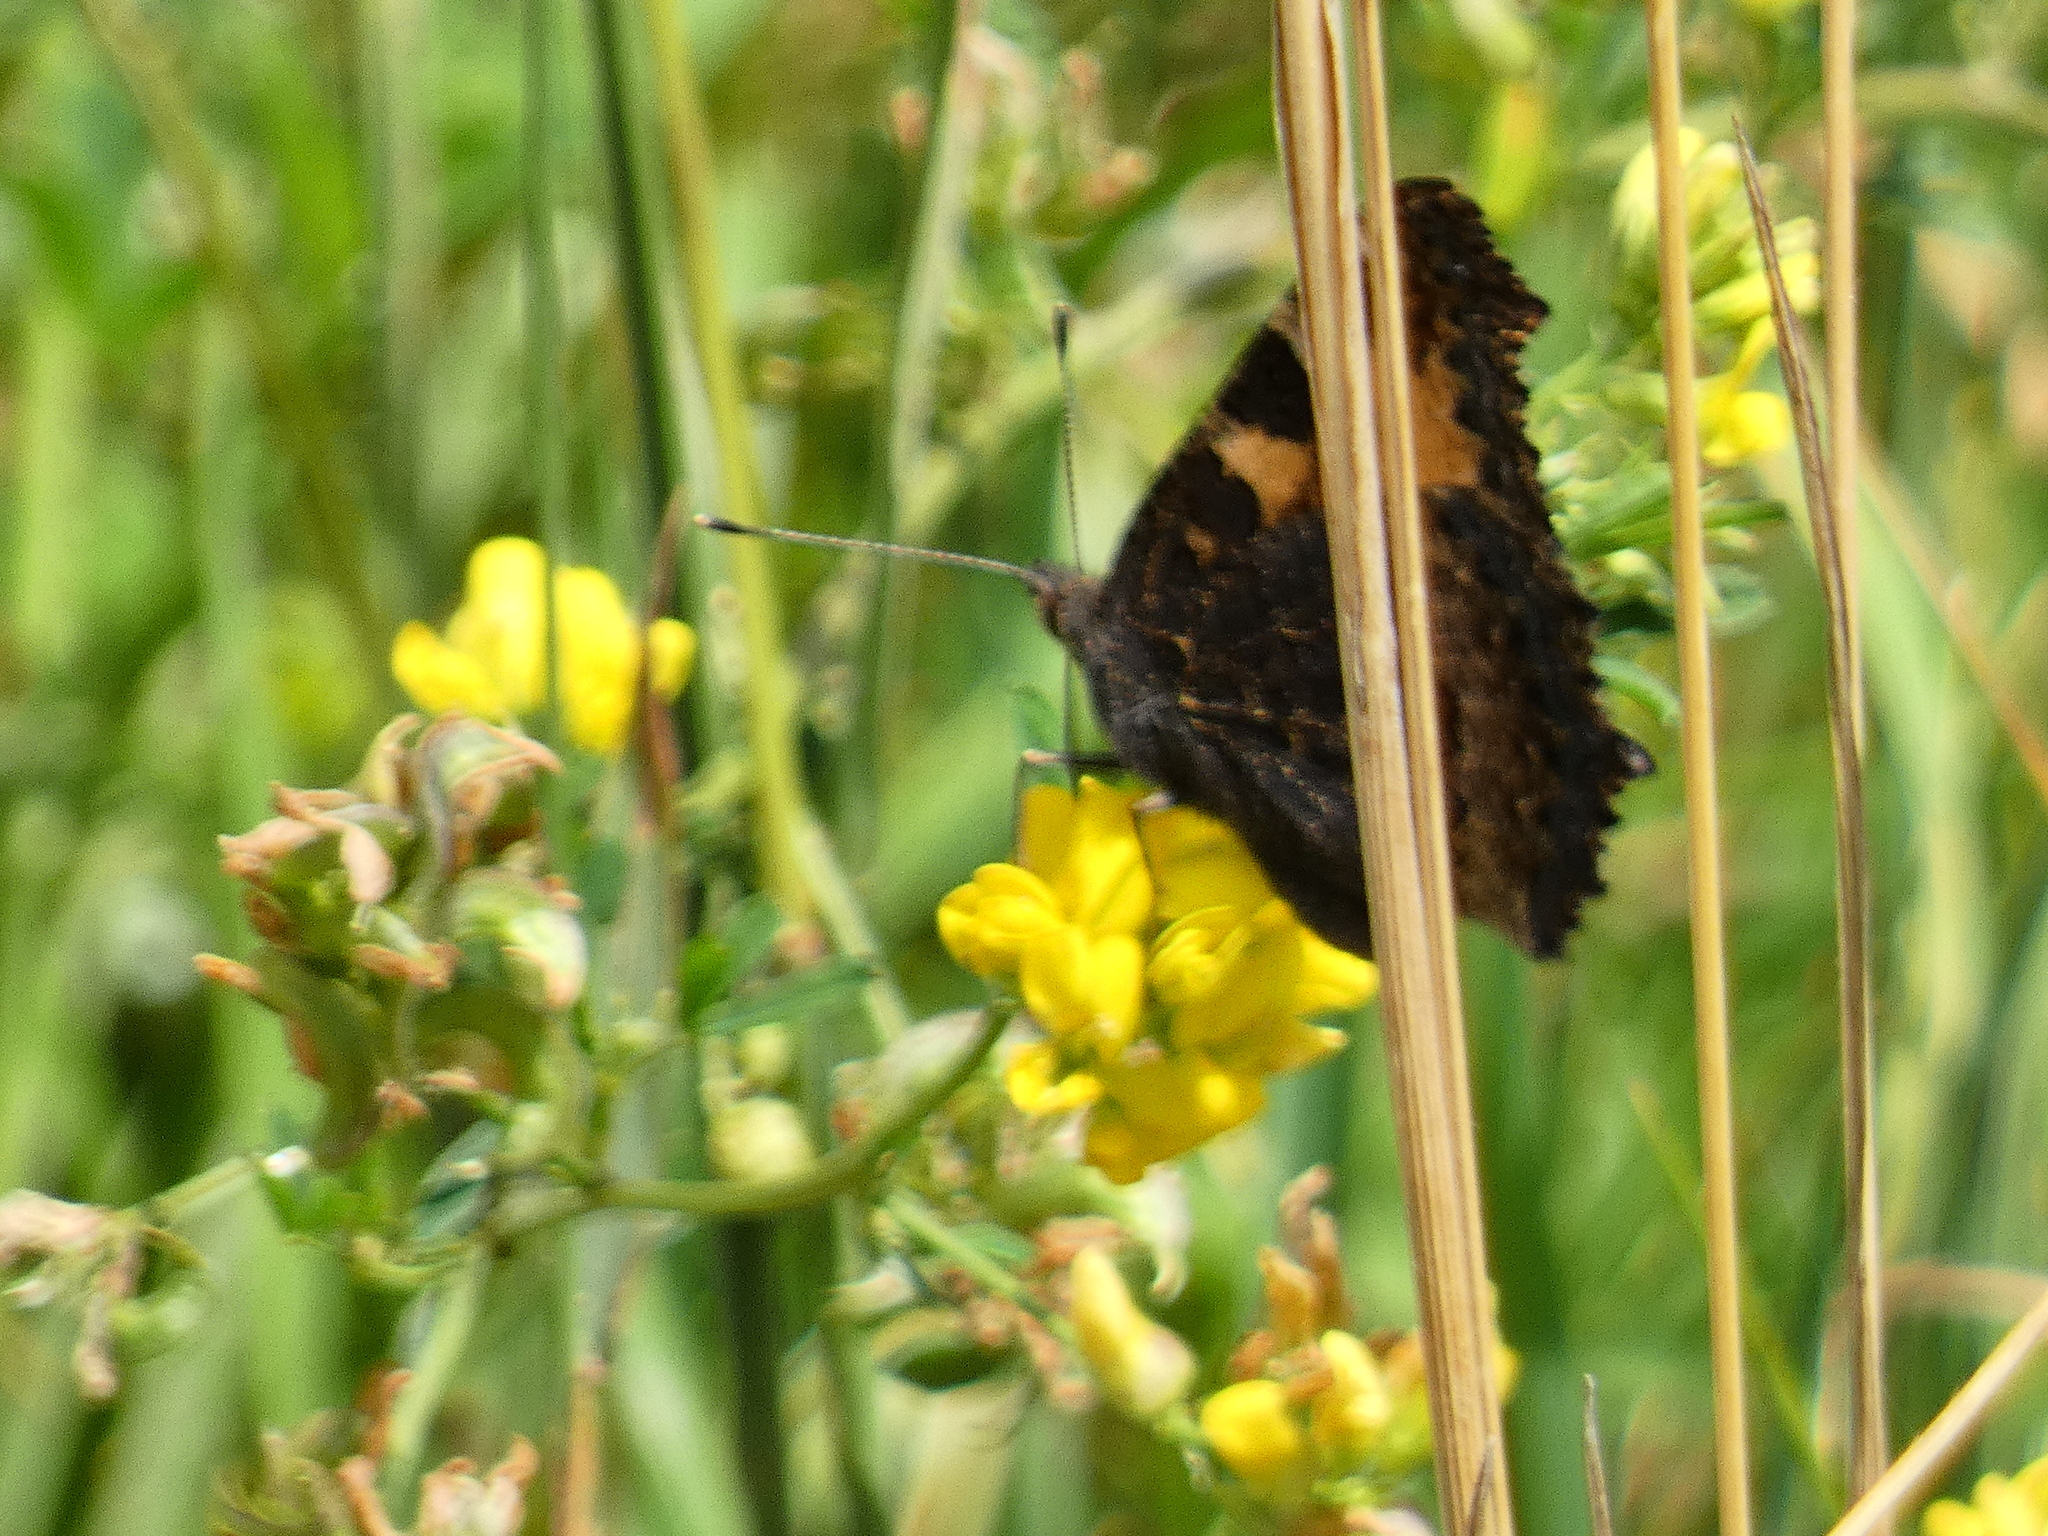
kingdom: Animalia
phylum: Arthropoda
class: Insecta
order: Lepidoptera
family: Nymphalidae
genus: Aglais
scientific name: Aglais urticae
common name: Small tortoiseshell
